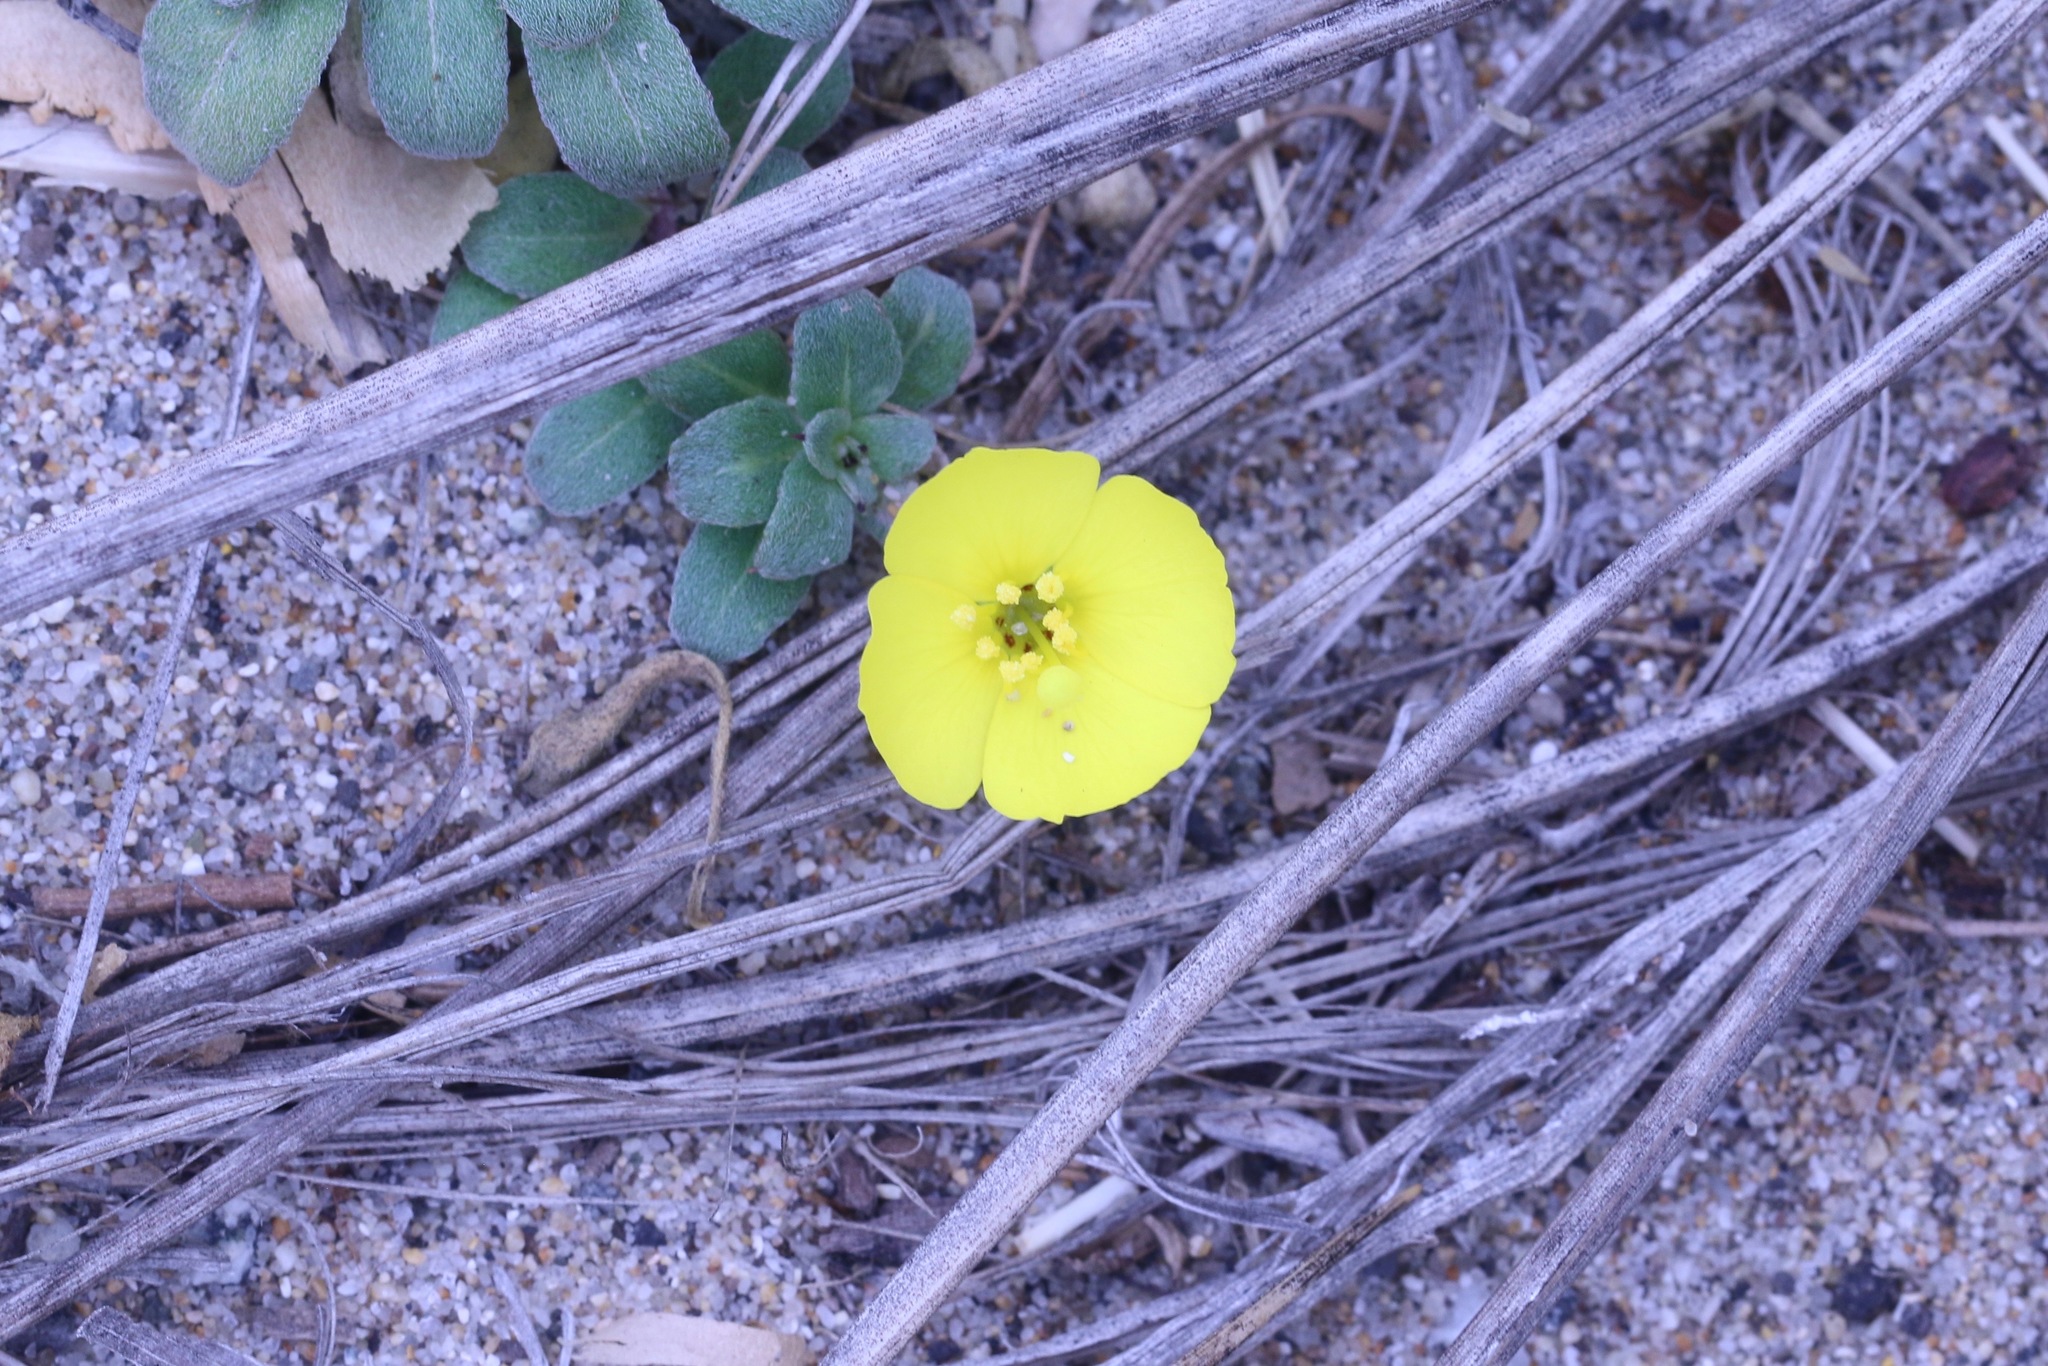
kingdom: Plantae
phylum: Tracheophyta
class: Magnoliopsida
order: Myrtales
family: Onagraceae
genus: Camissoniopsis
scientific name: Camissoniopsis cheiranthifolia
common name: Beach suncup
